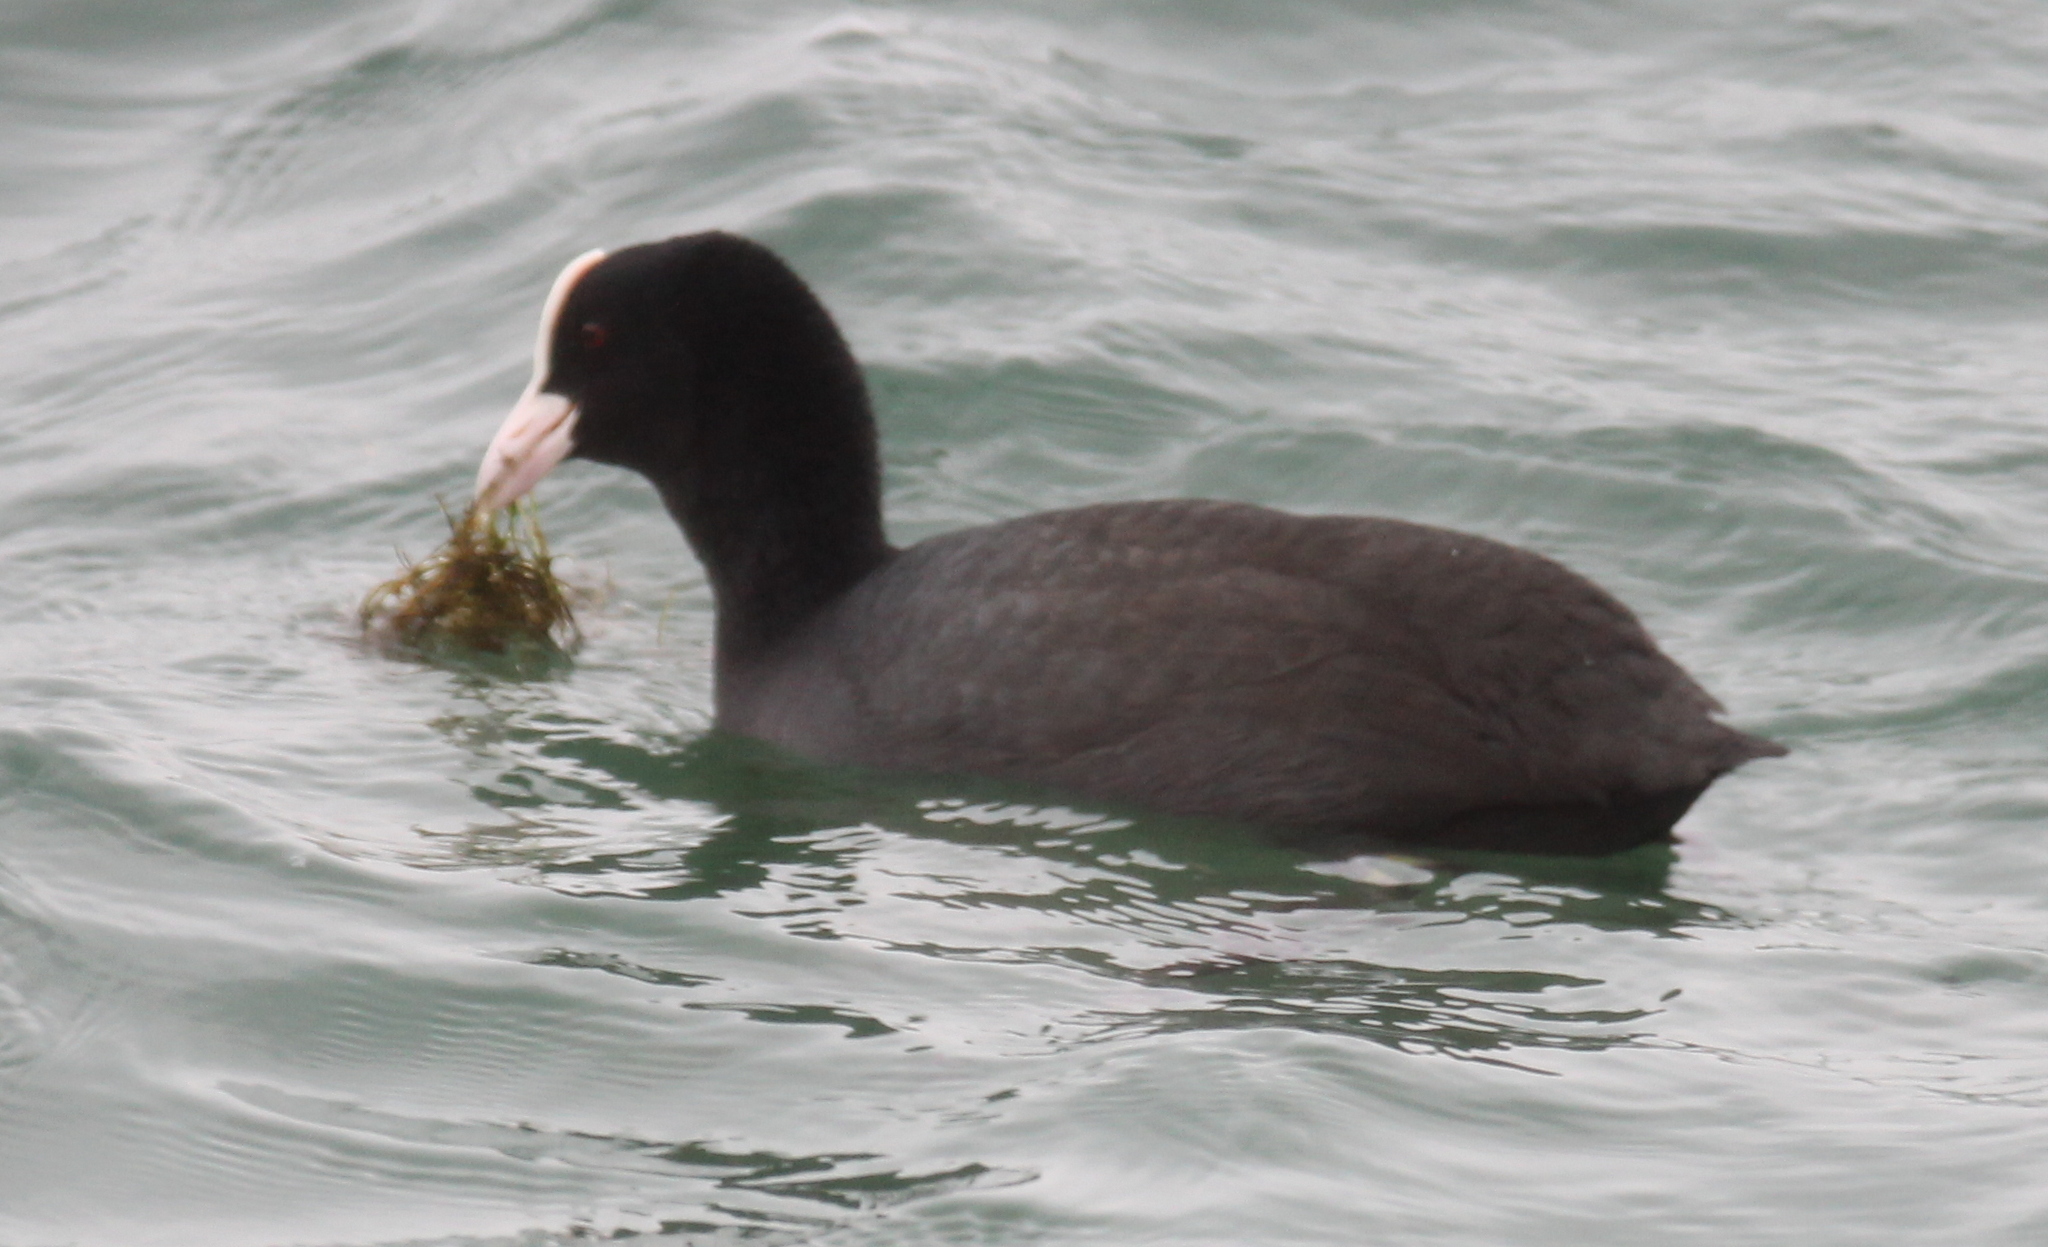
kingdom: Animalia
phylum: Chordata
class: Aves
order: Gruiformes
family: Rallidae
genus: Fulica
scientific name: Fulica atra
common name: Eurasian coot
